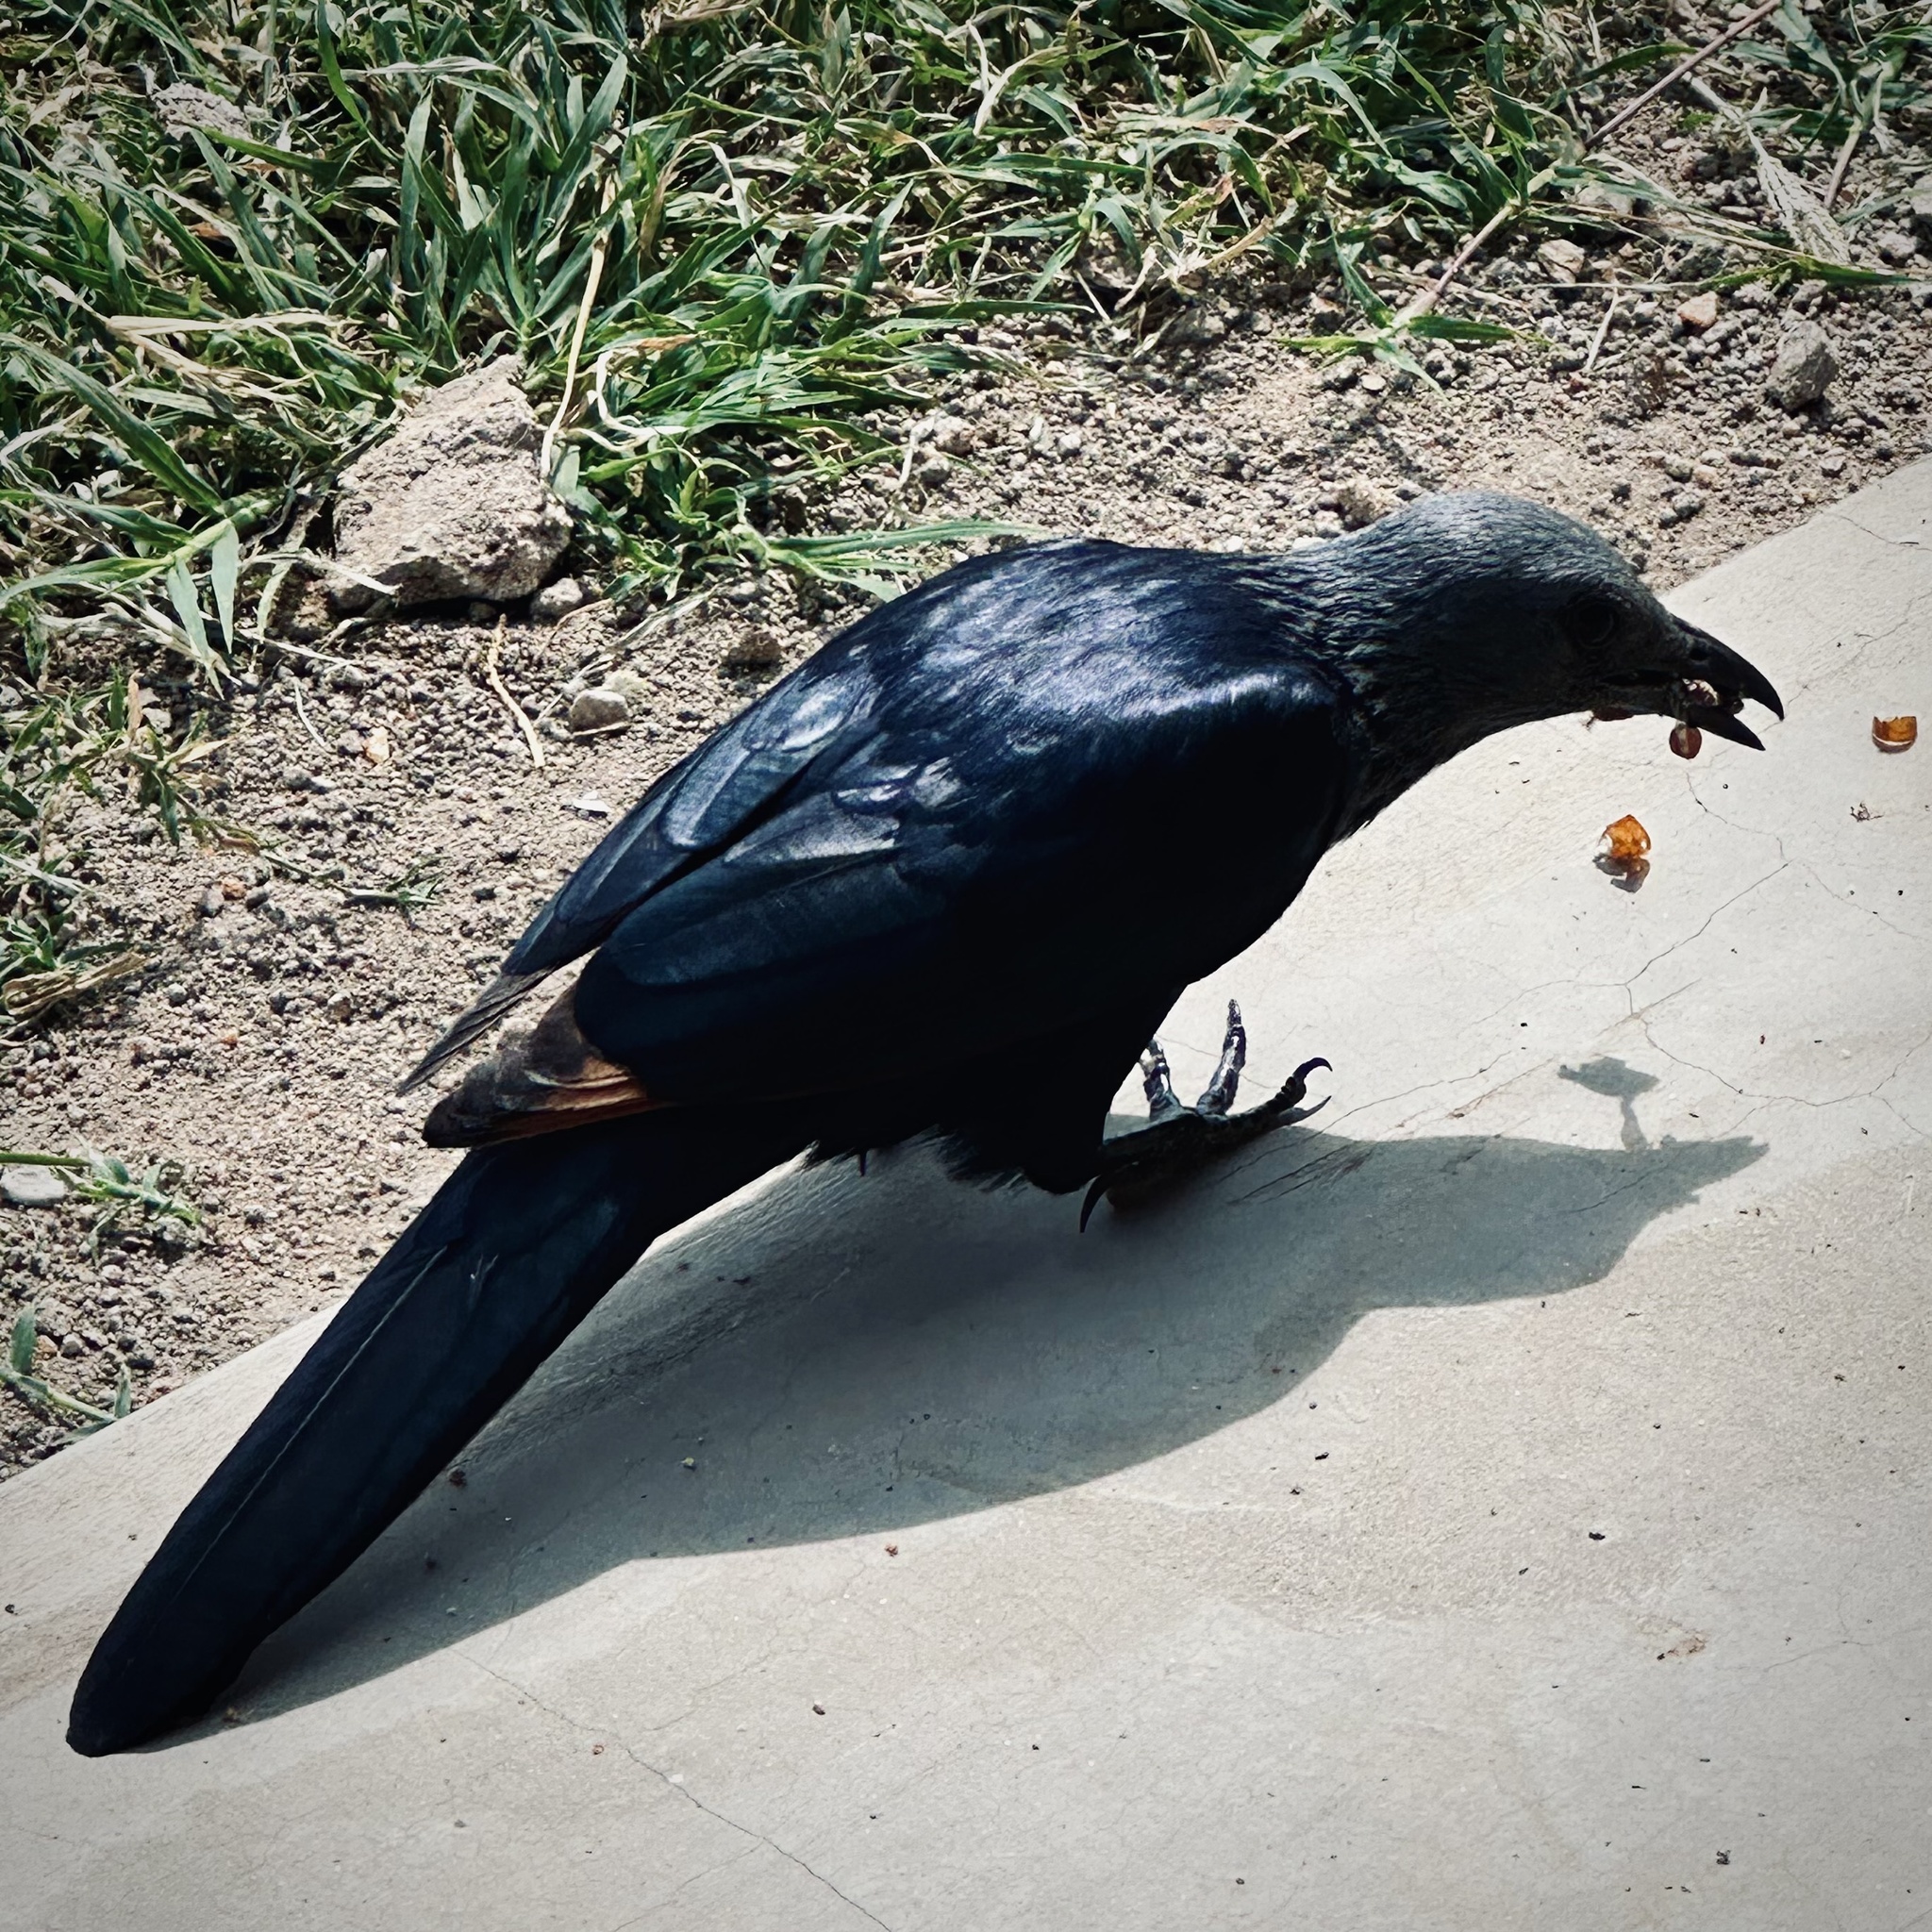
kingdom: Animalia
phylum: Chordata
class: Aves
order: Passeriformes
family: Sturnidae
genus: Onychognathus
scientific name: Onychognathus morio
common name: Red-winged starling
